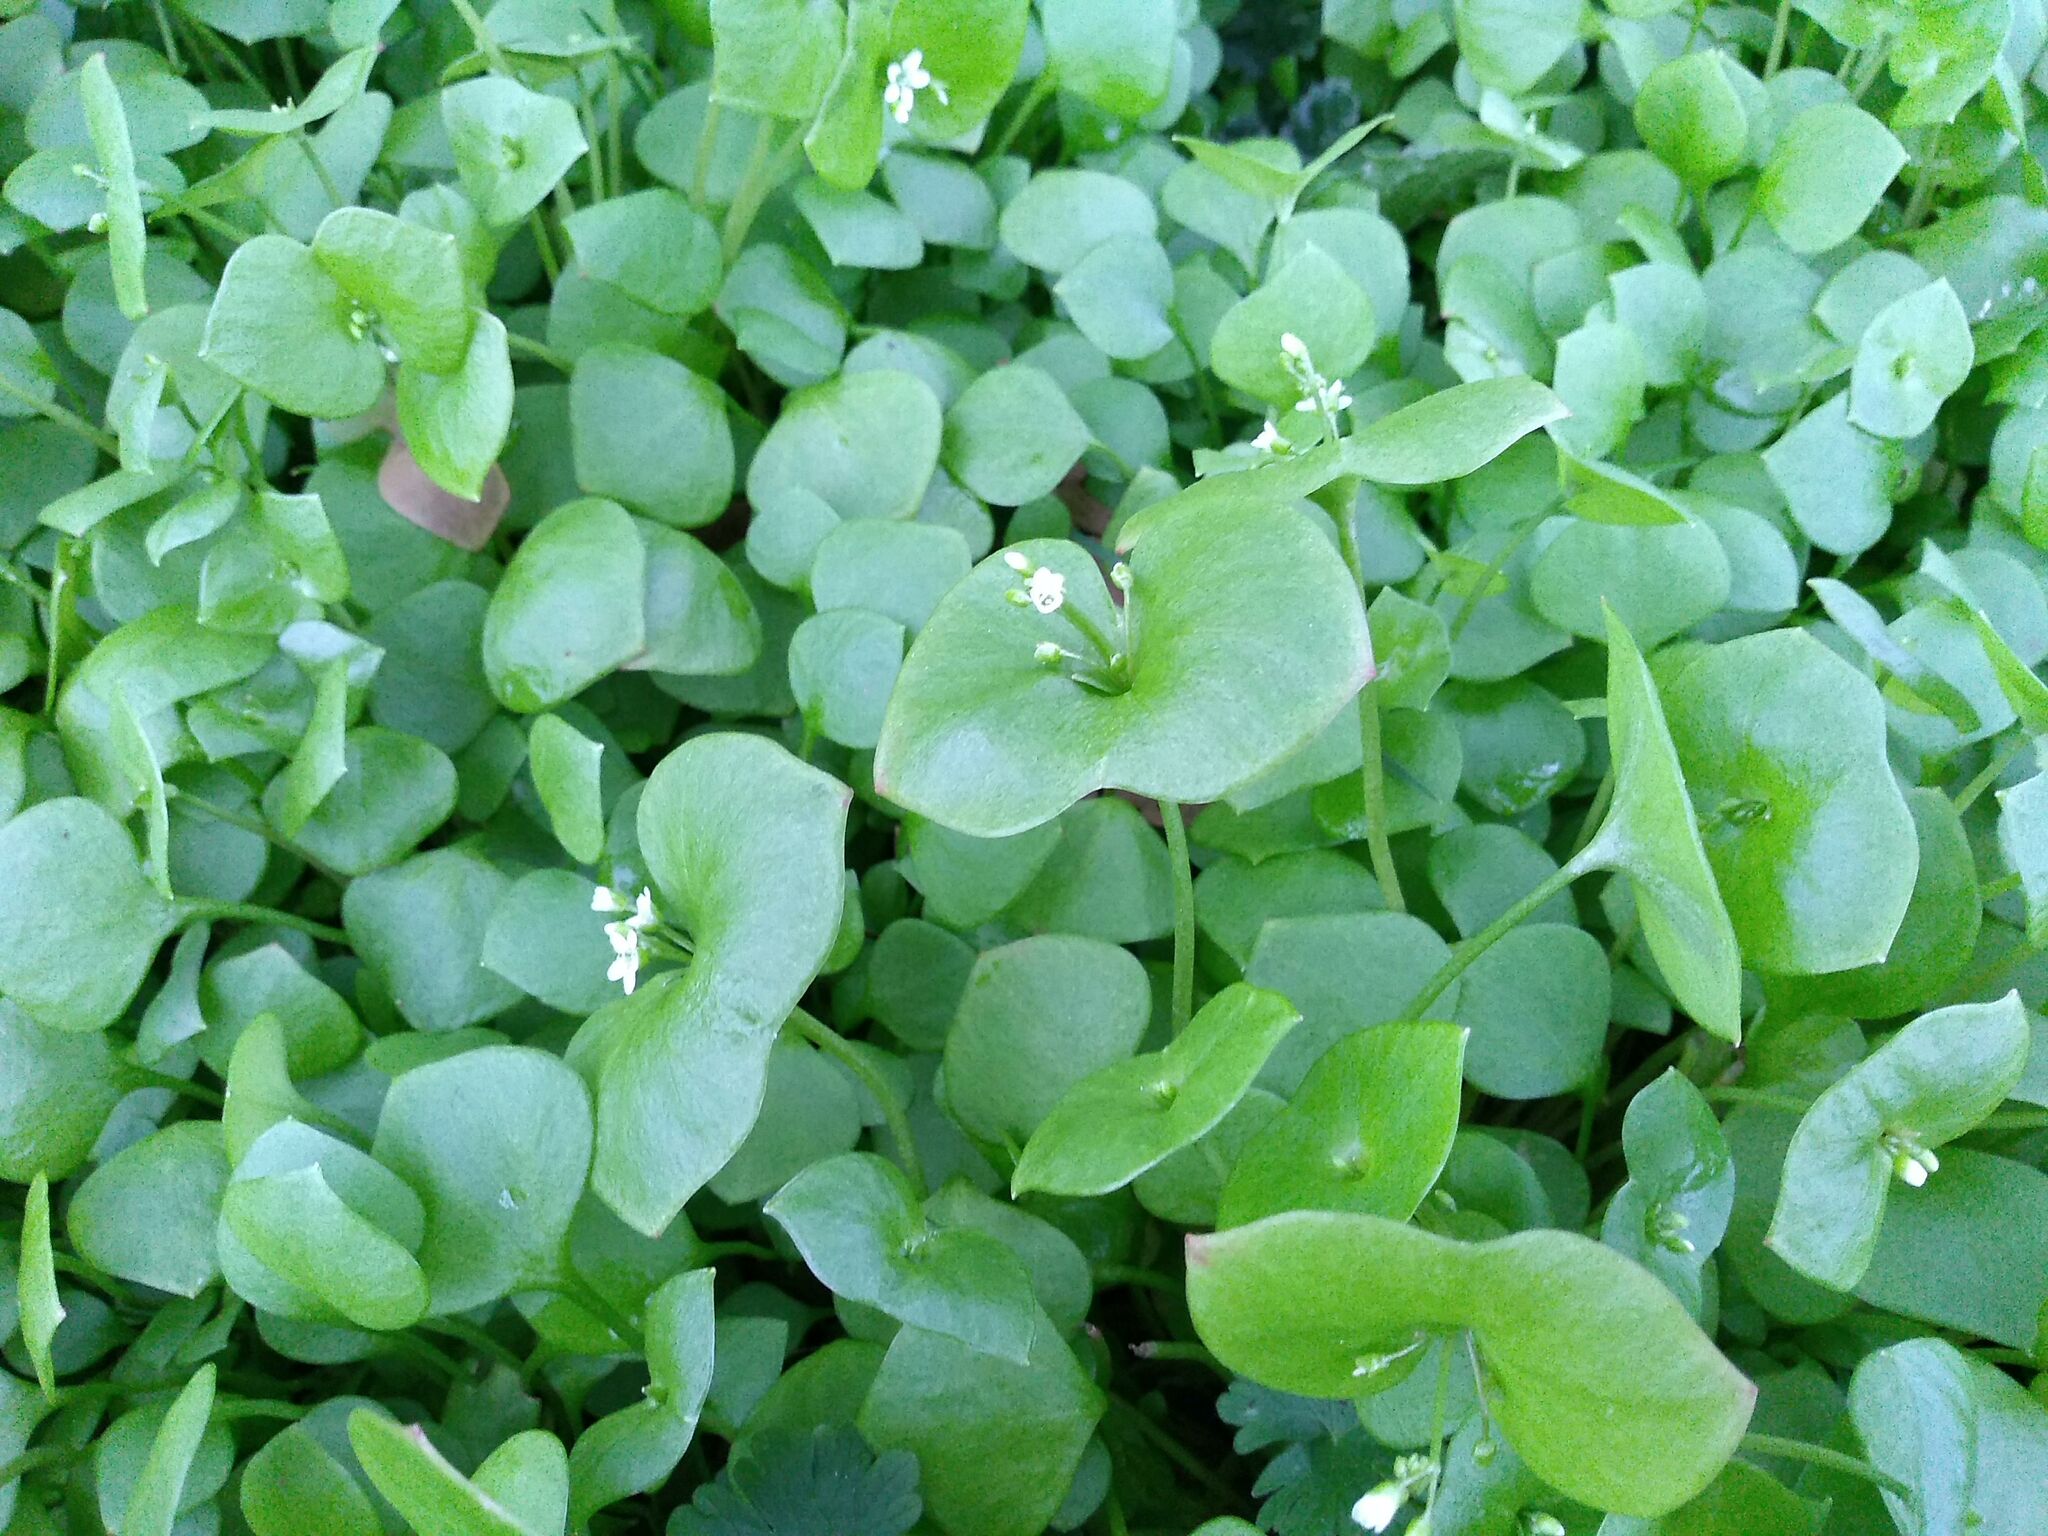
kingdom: Plantae
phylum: Tracheophyta
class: Magnoliopsida
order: Caryophyllales
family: Montiaceae
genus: Claytonia
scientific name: Claytonia perfoliata
